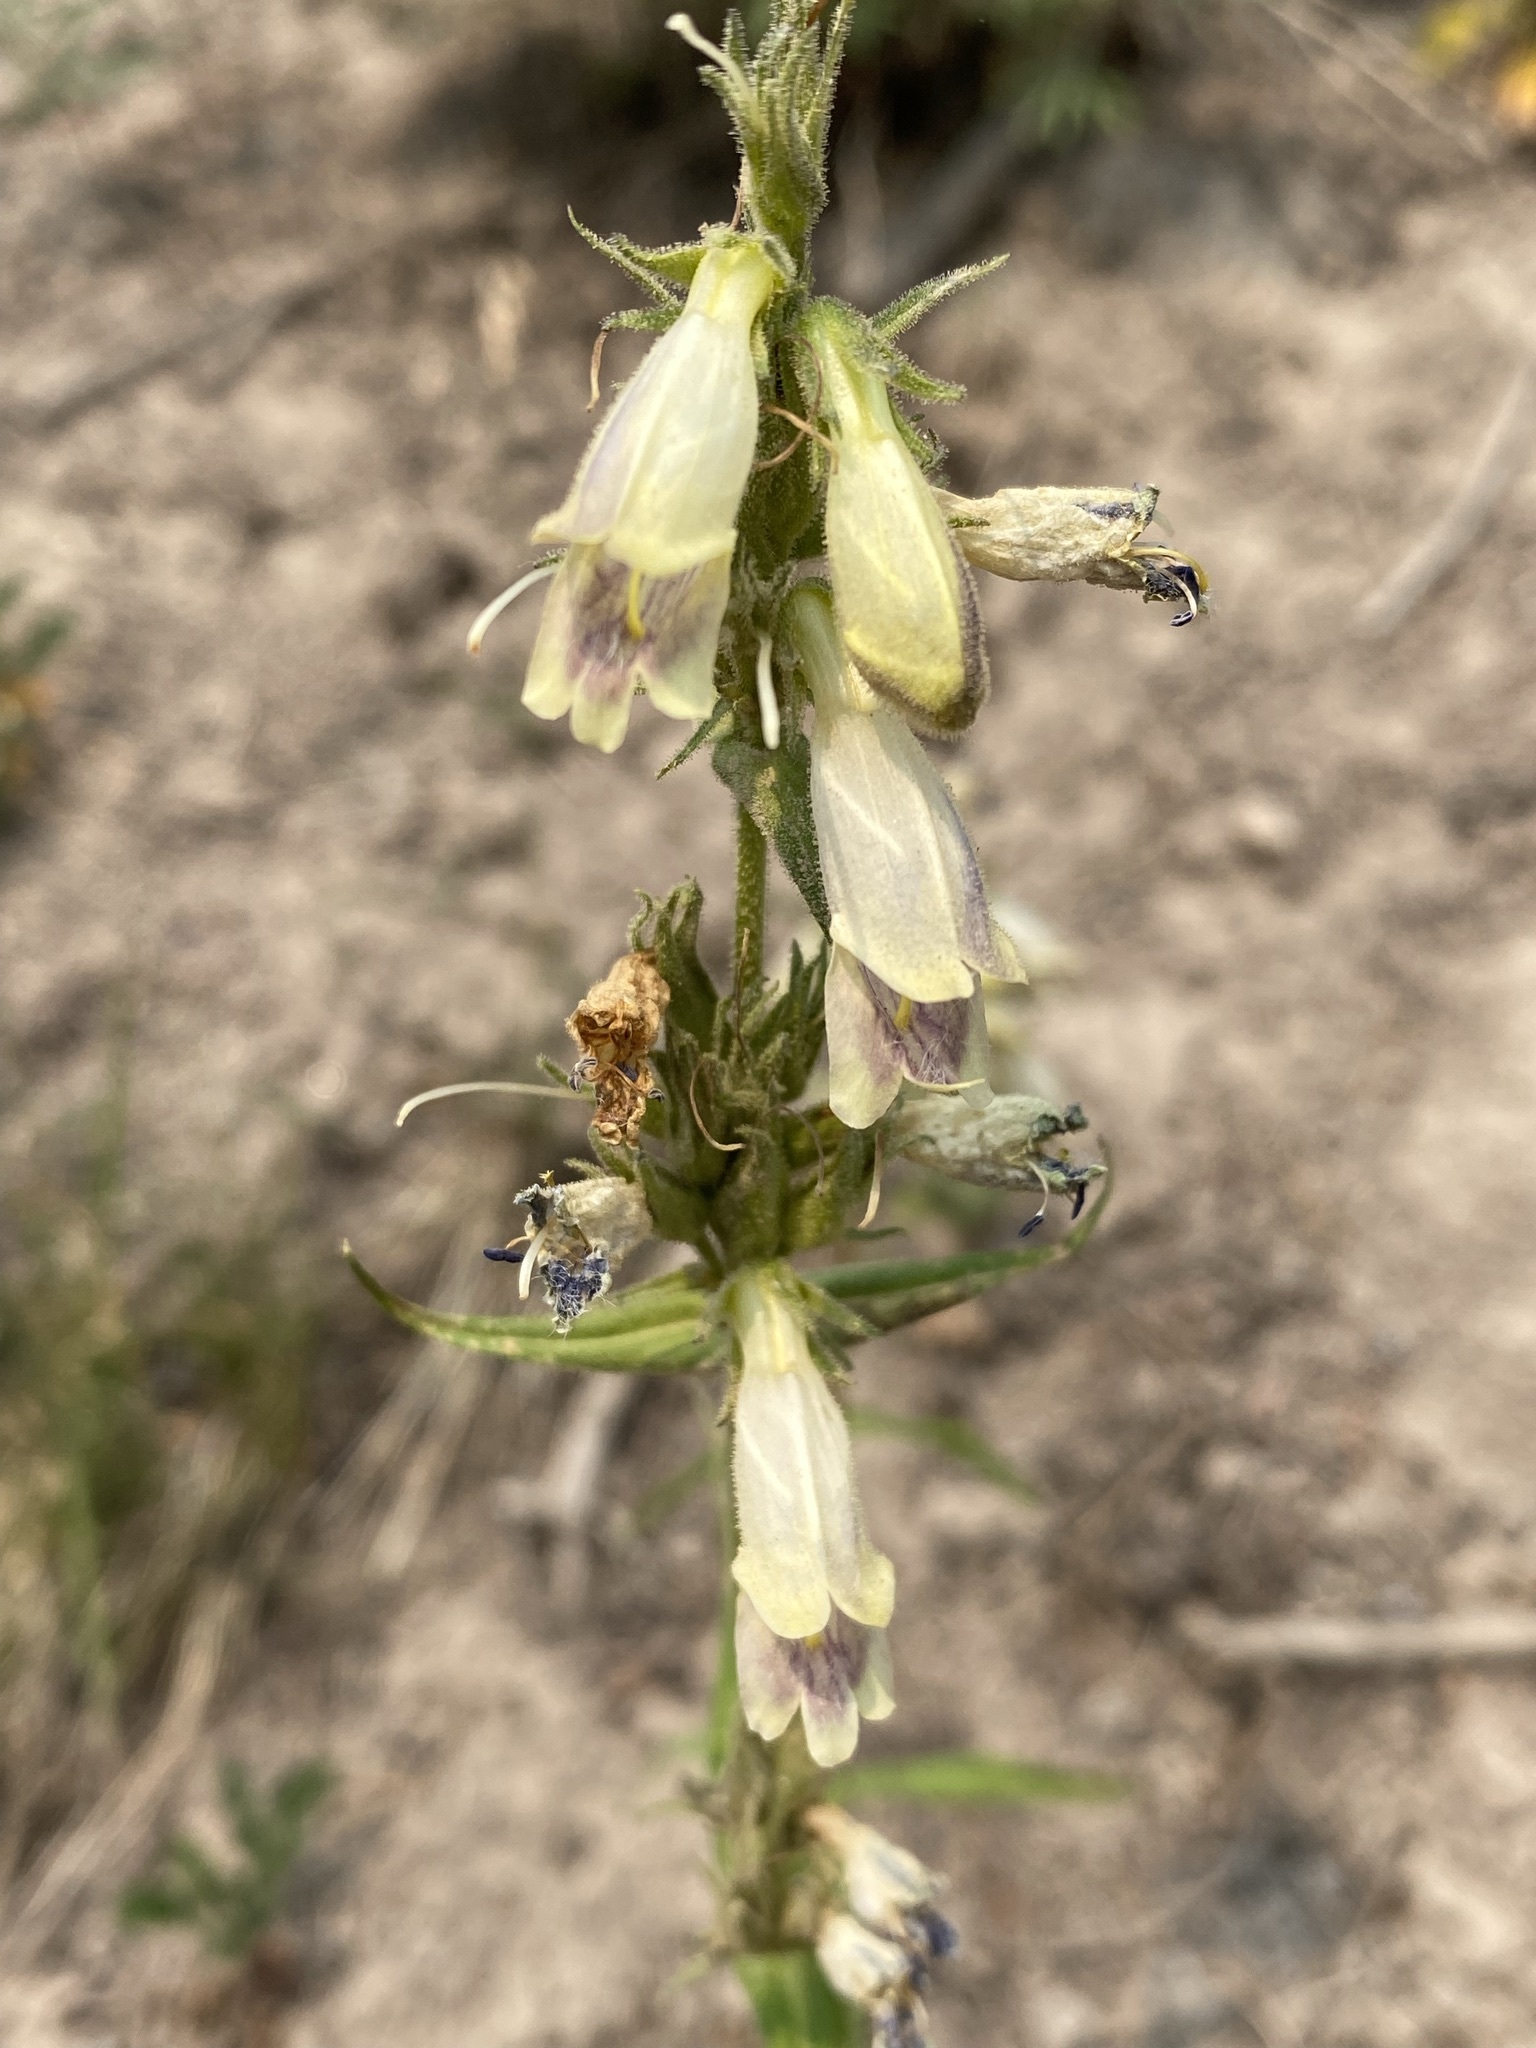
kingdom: Plantae
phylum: Tracheophyta
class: Magnoliopsida
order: Lamiales
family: Plantaginaceae
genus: Penstemon
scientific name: Penstemon whippleanus
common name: Whipple's penstemon
